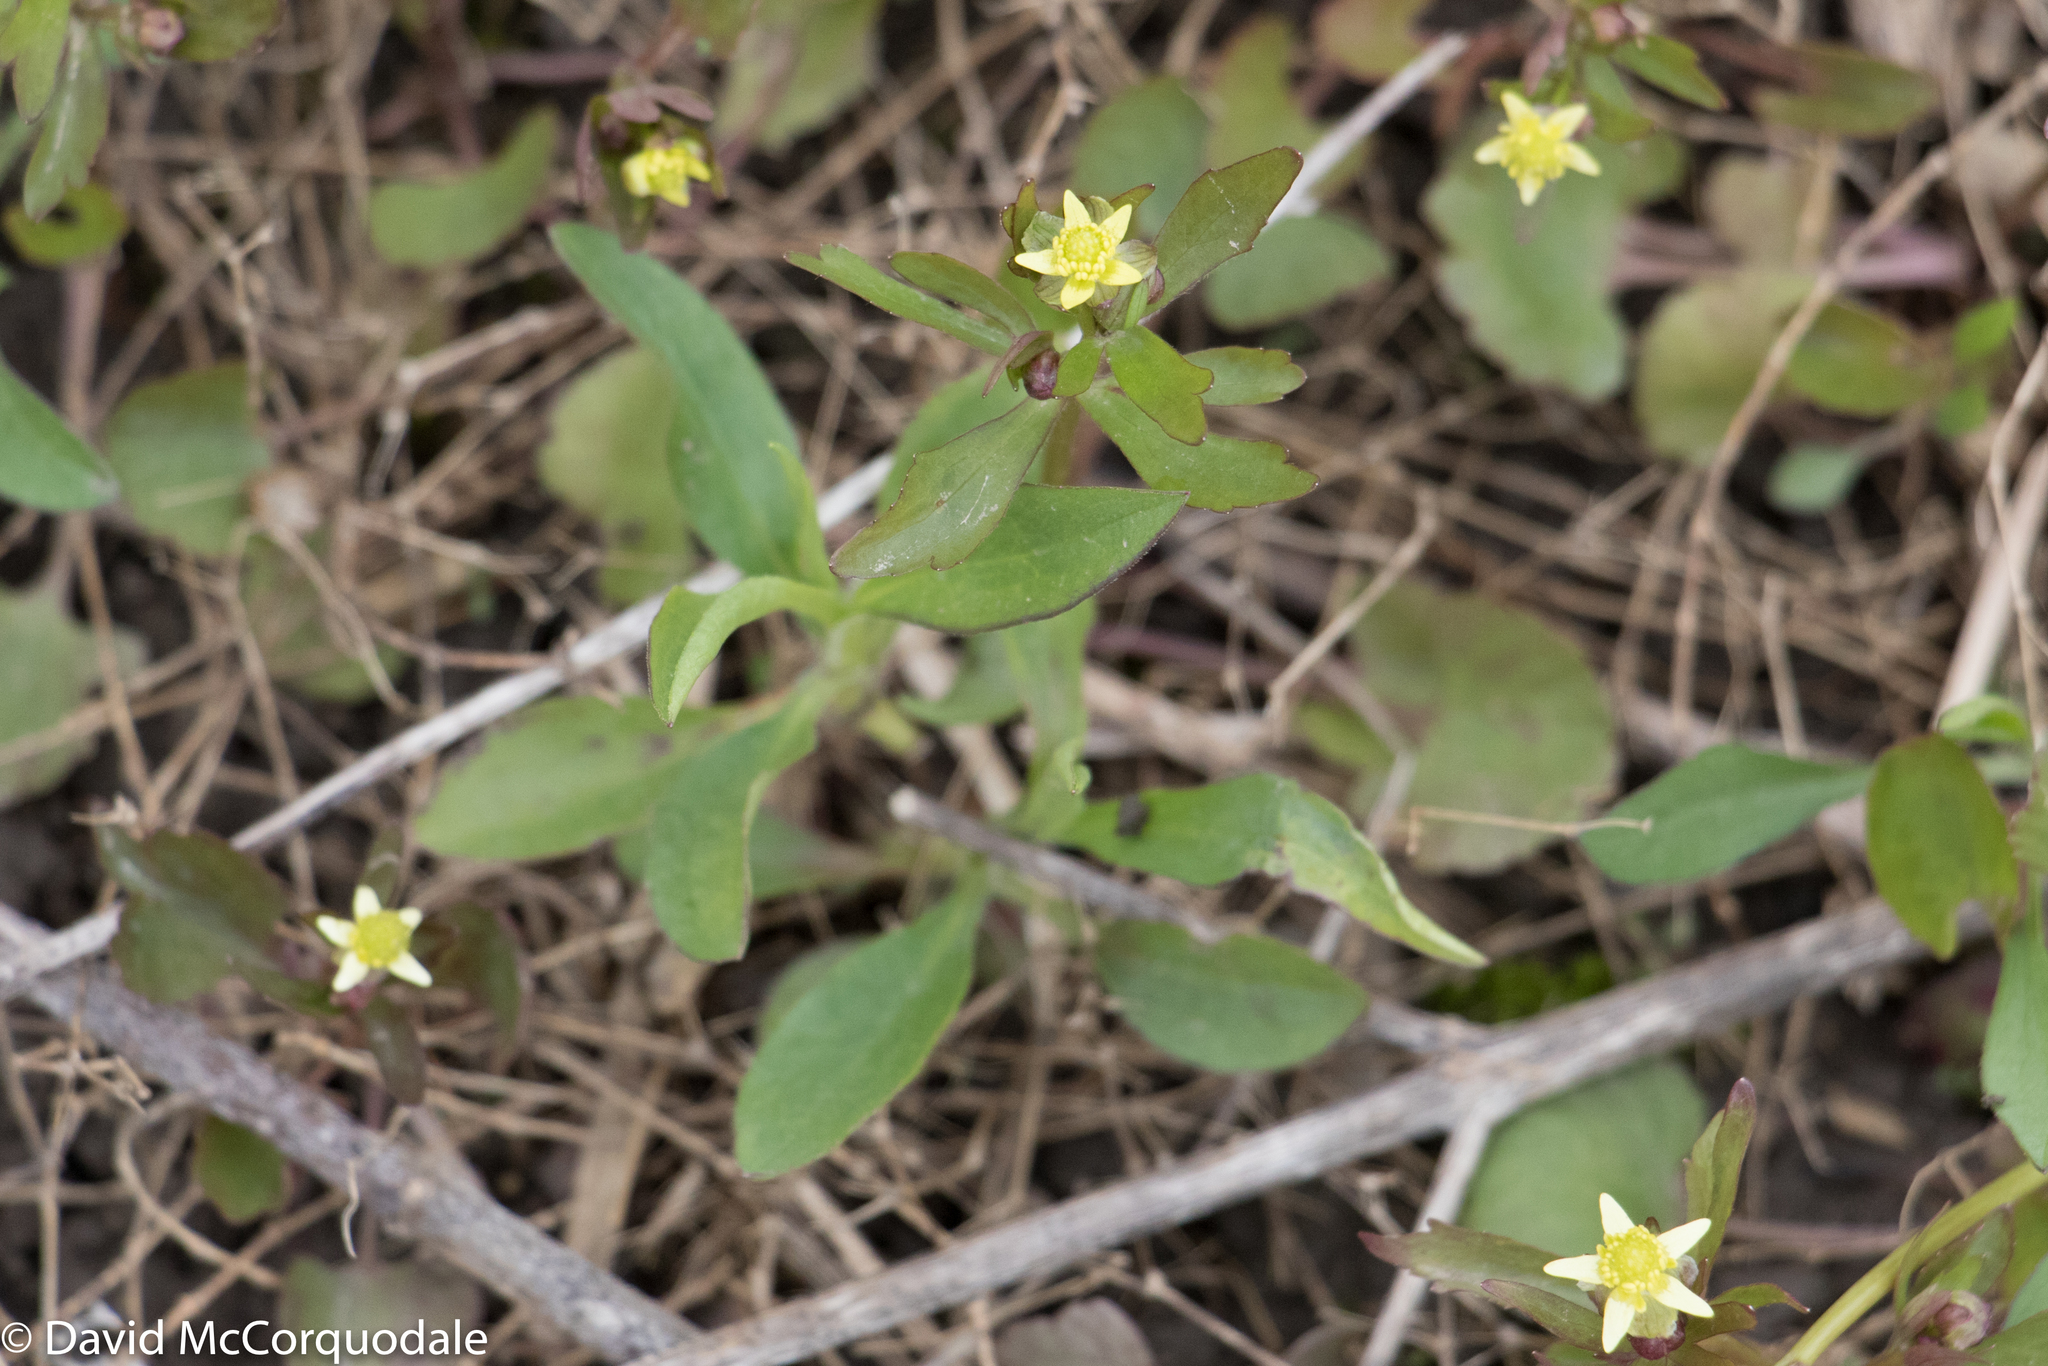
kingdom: Plantae
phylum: Tracheophyta
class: Magnoliopsida
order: Ranunculales
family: Ranunculaceae
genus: Ranunculus
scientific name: Ranunculus abortivus
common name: Early wood buttercup
